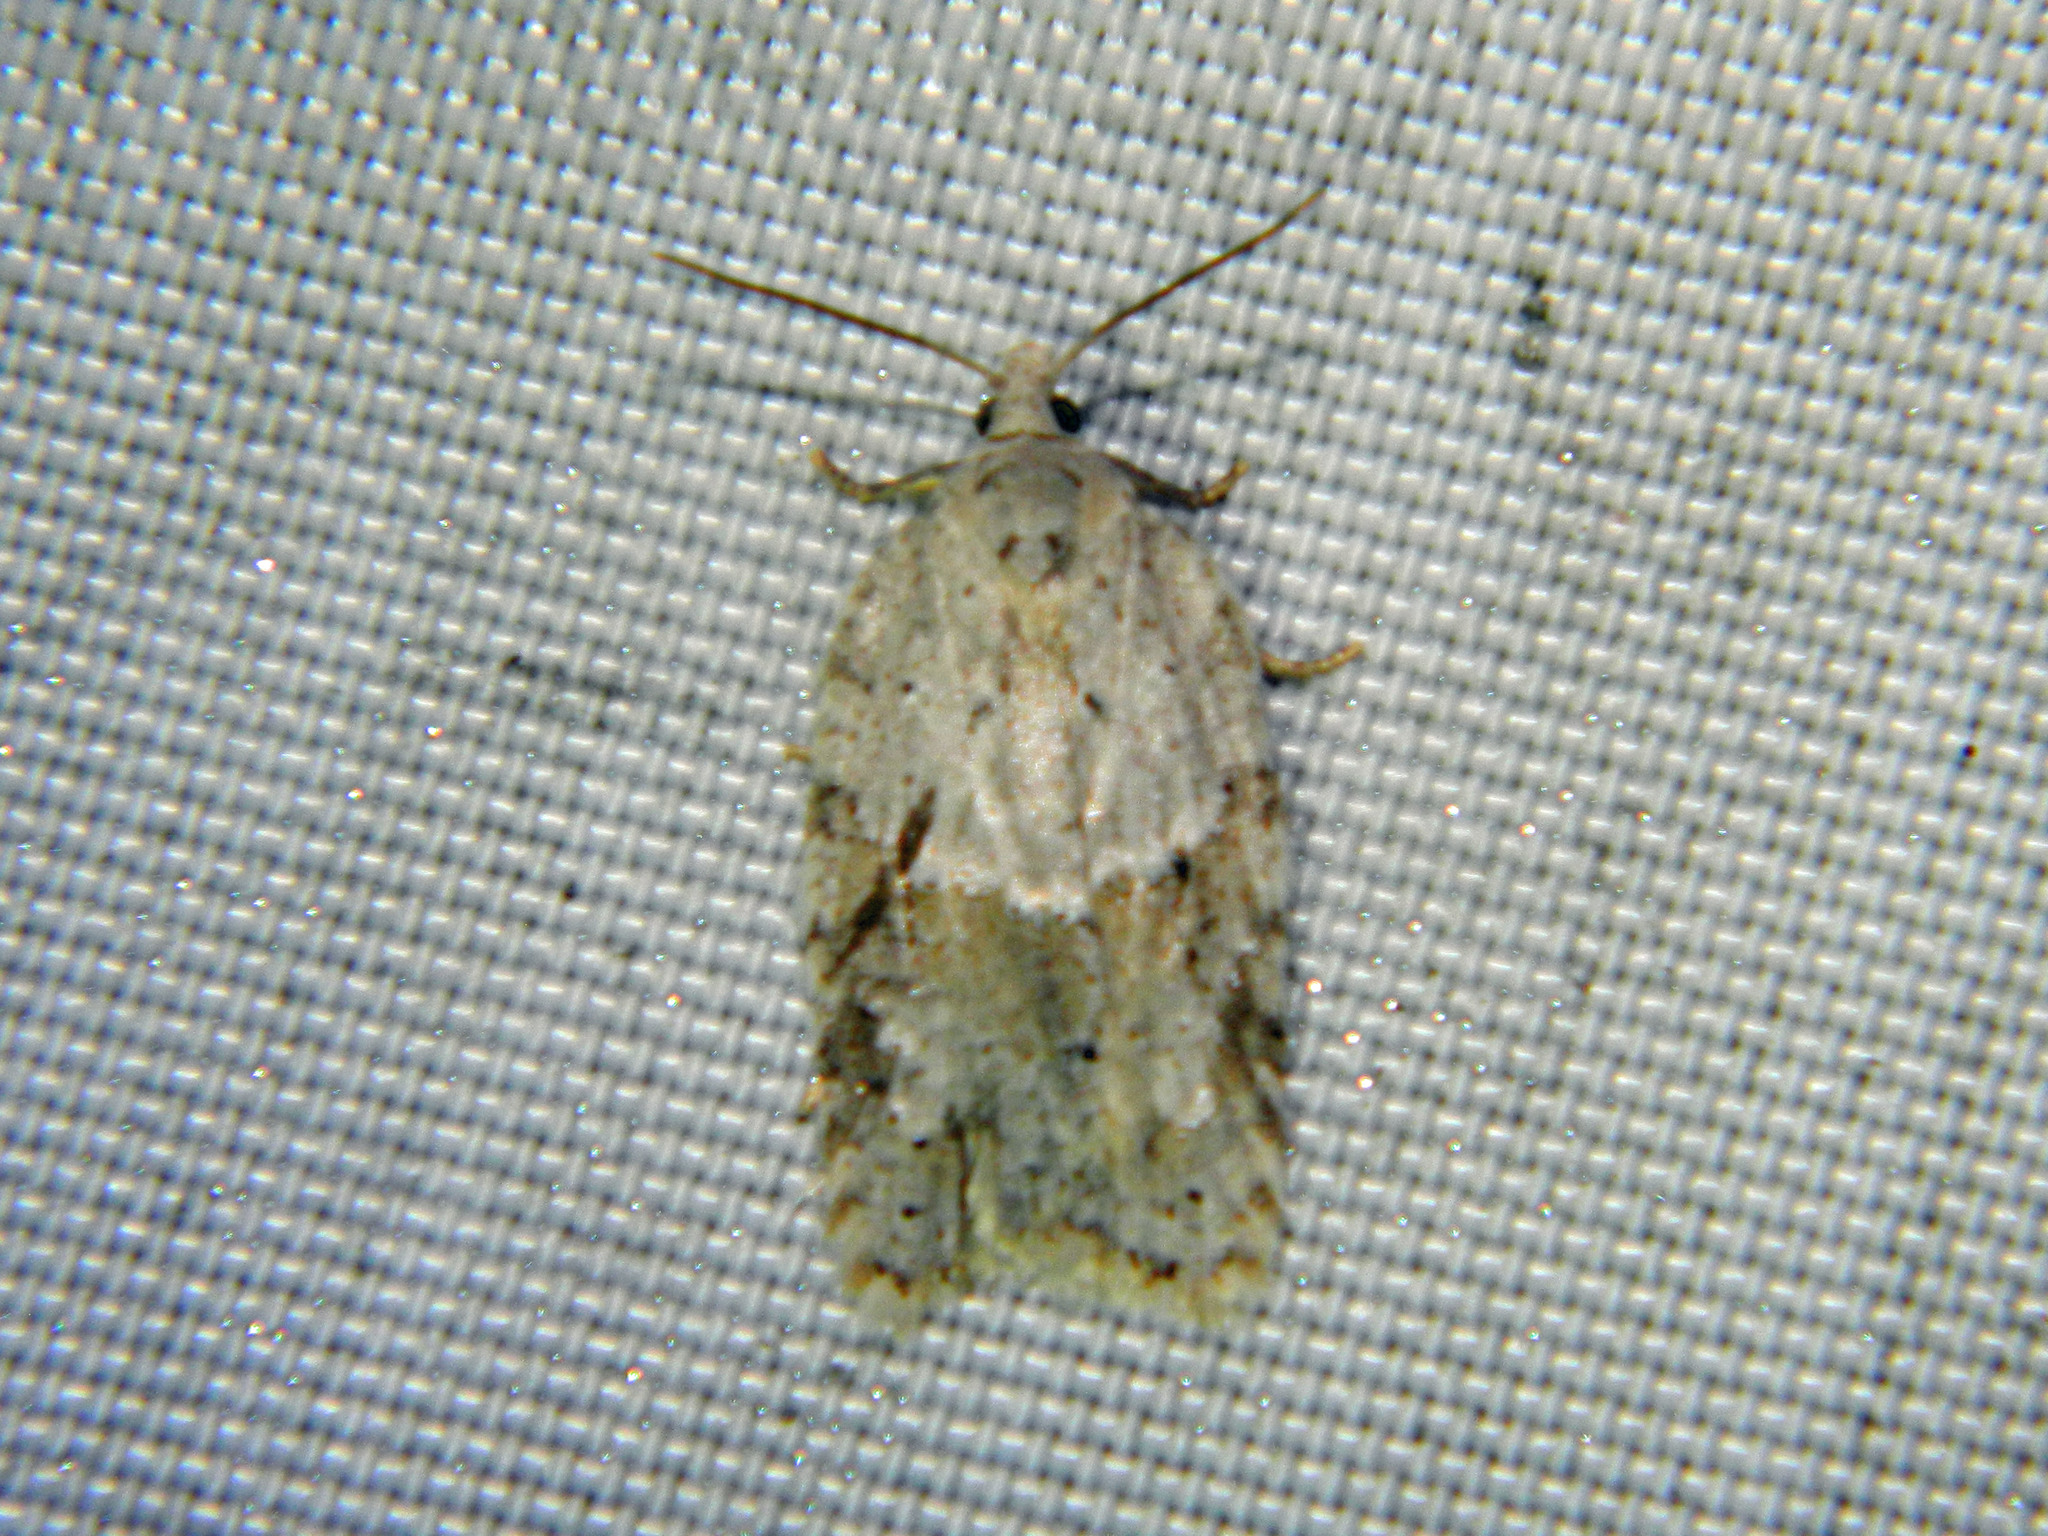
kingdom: Animalia
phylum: Arthropoda
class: Insecta
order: Lepidoptera
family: Tortricidae
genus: Acleris
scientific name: Acleris placidana
